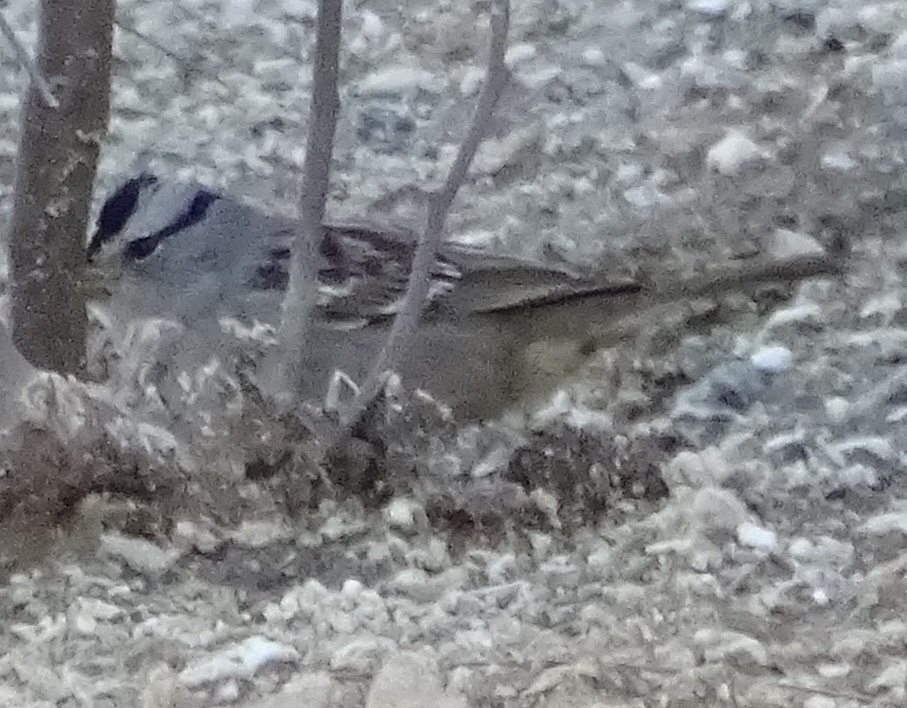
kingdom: Animalia
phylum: Chordata
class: Aves
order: Passeriformes
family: Passerellidae
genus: Zonotrichia
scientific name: Zonotrichia leucophrys
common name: White-crowned sparrow
